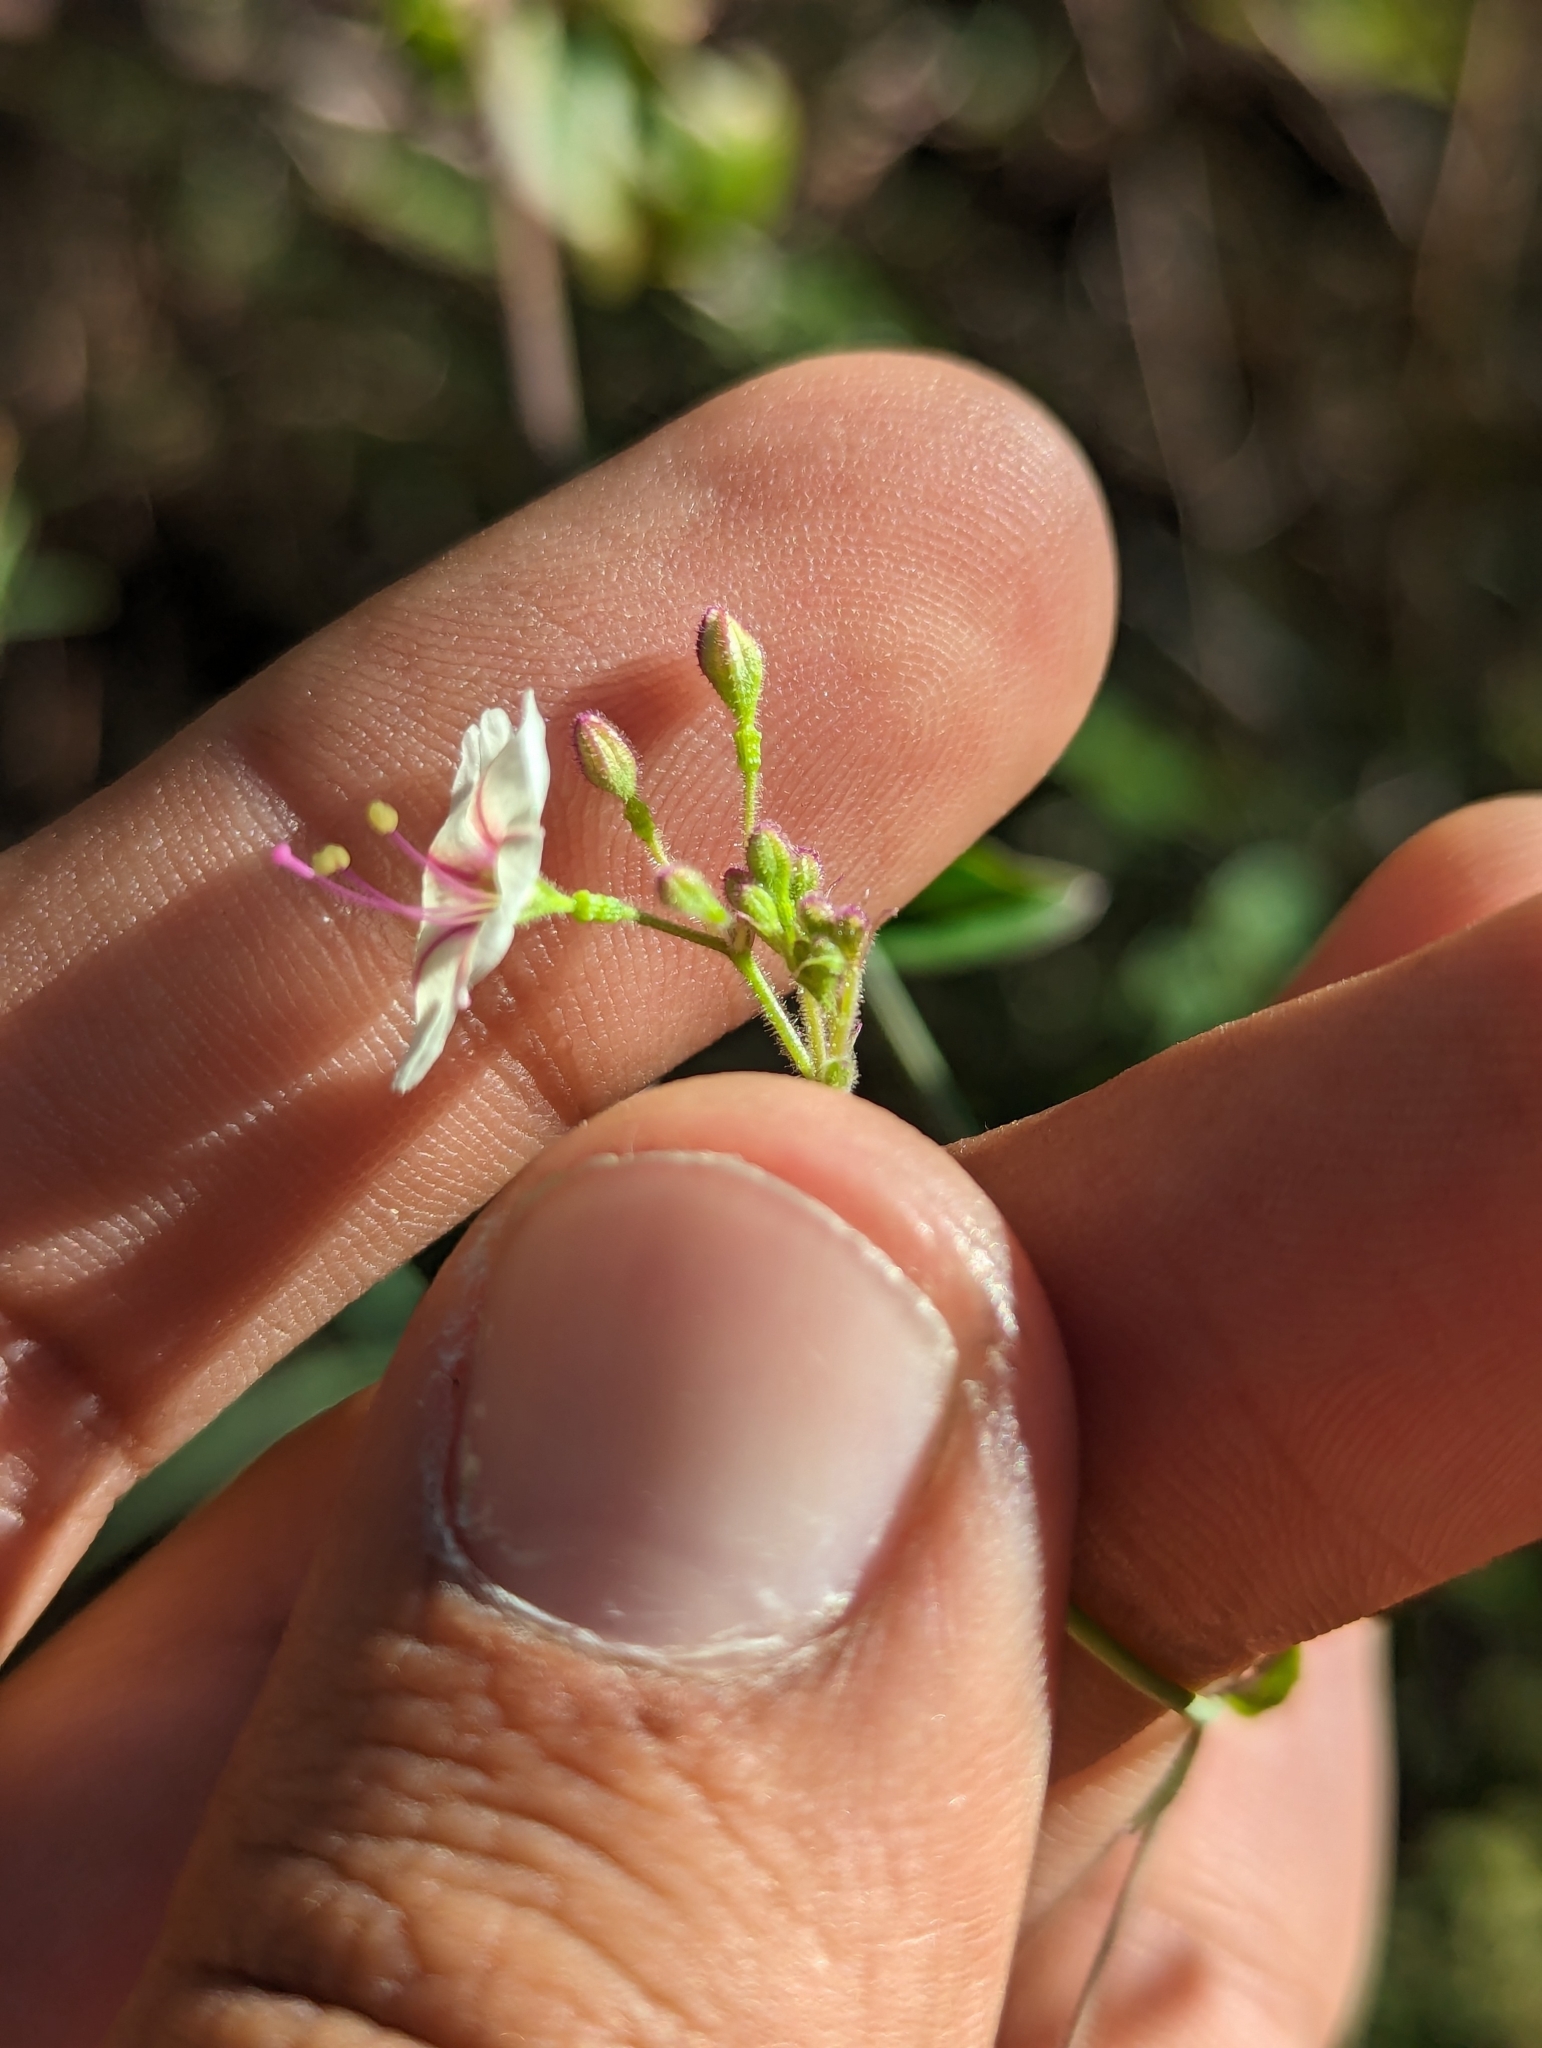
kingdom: Plantae
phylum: Tracheophyta
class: Magnoliopsida
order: Caryophyllales
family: Nyctaginaceae
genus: Commicarpus
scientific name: Commicarpus brandegeei
